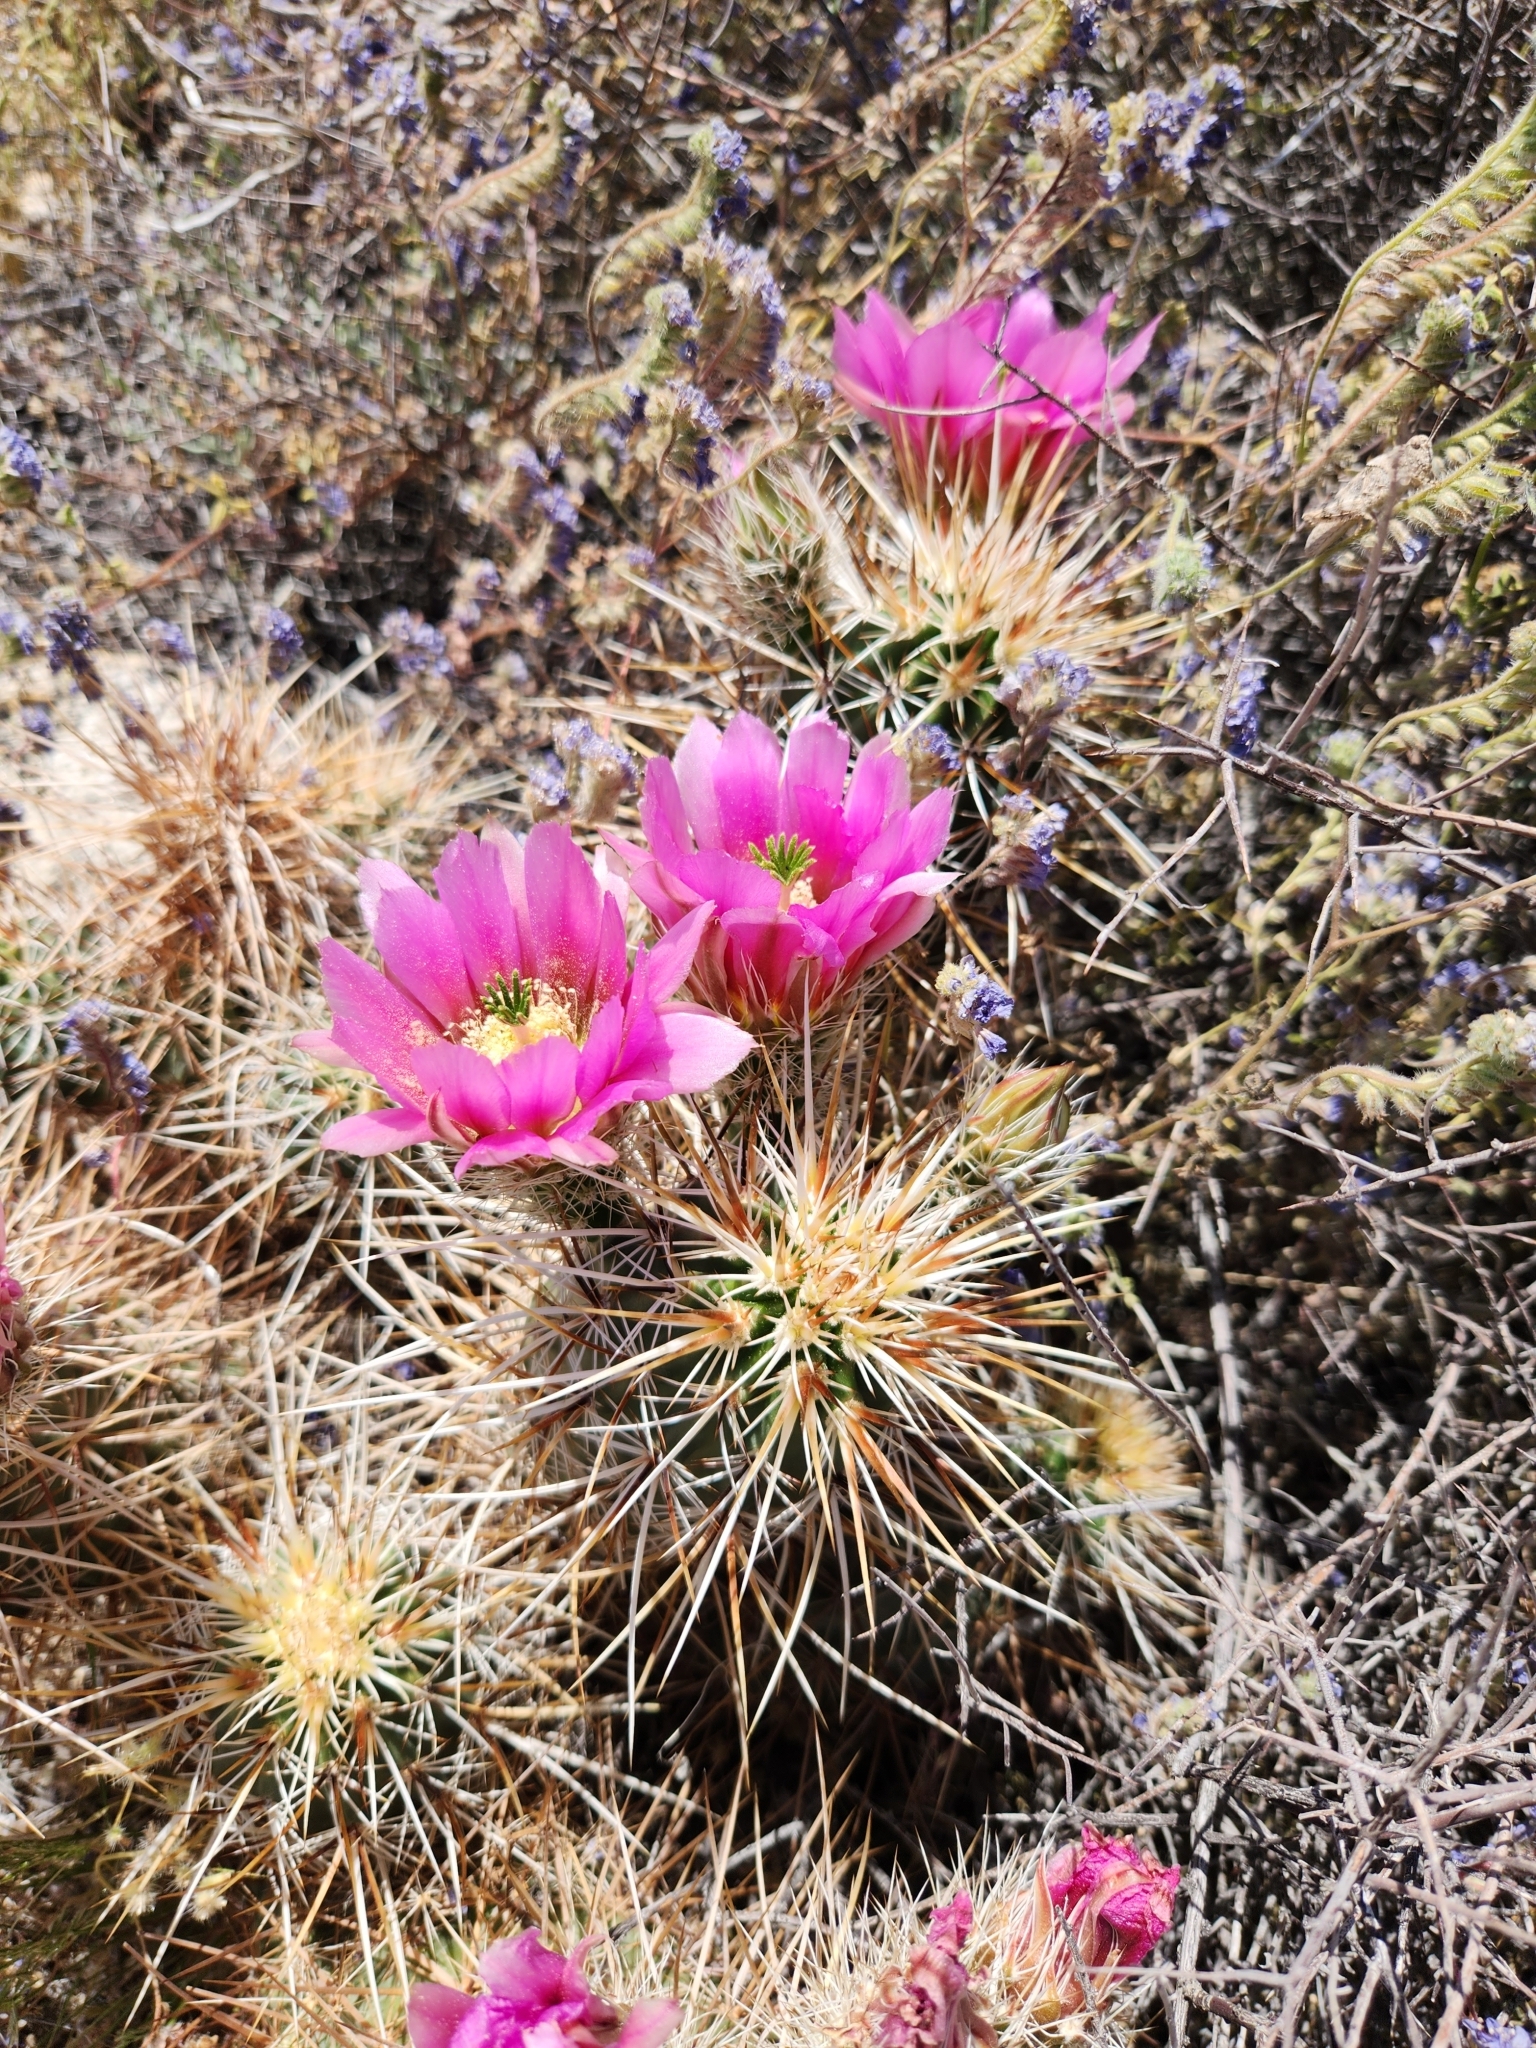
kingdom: Plantae
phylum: Tracheophyta
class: Magnoliopsida
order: Caryophyllales
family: Cactaceae
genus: Echinocereus
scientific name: Echinocereus engelmannii
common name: Engelmann's hedgehog cactus
